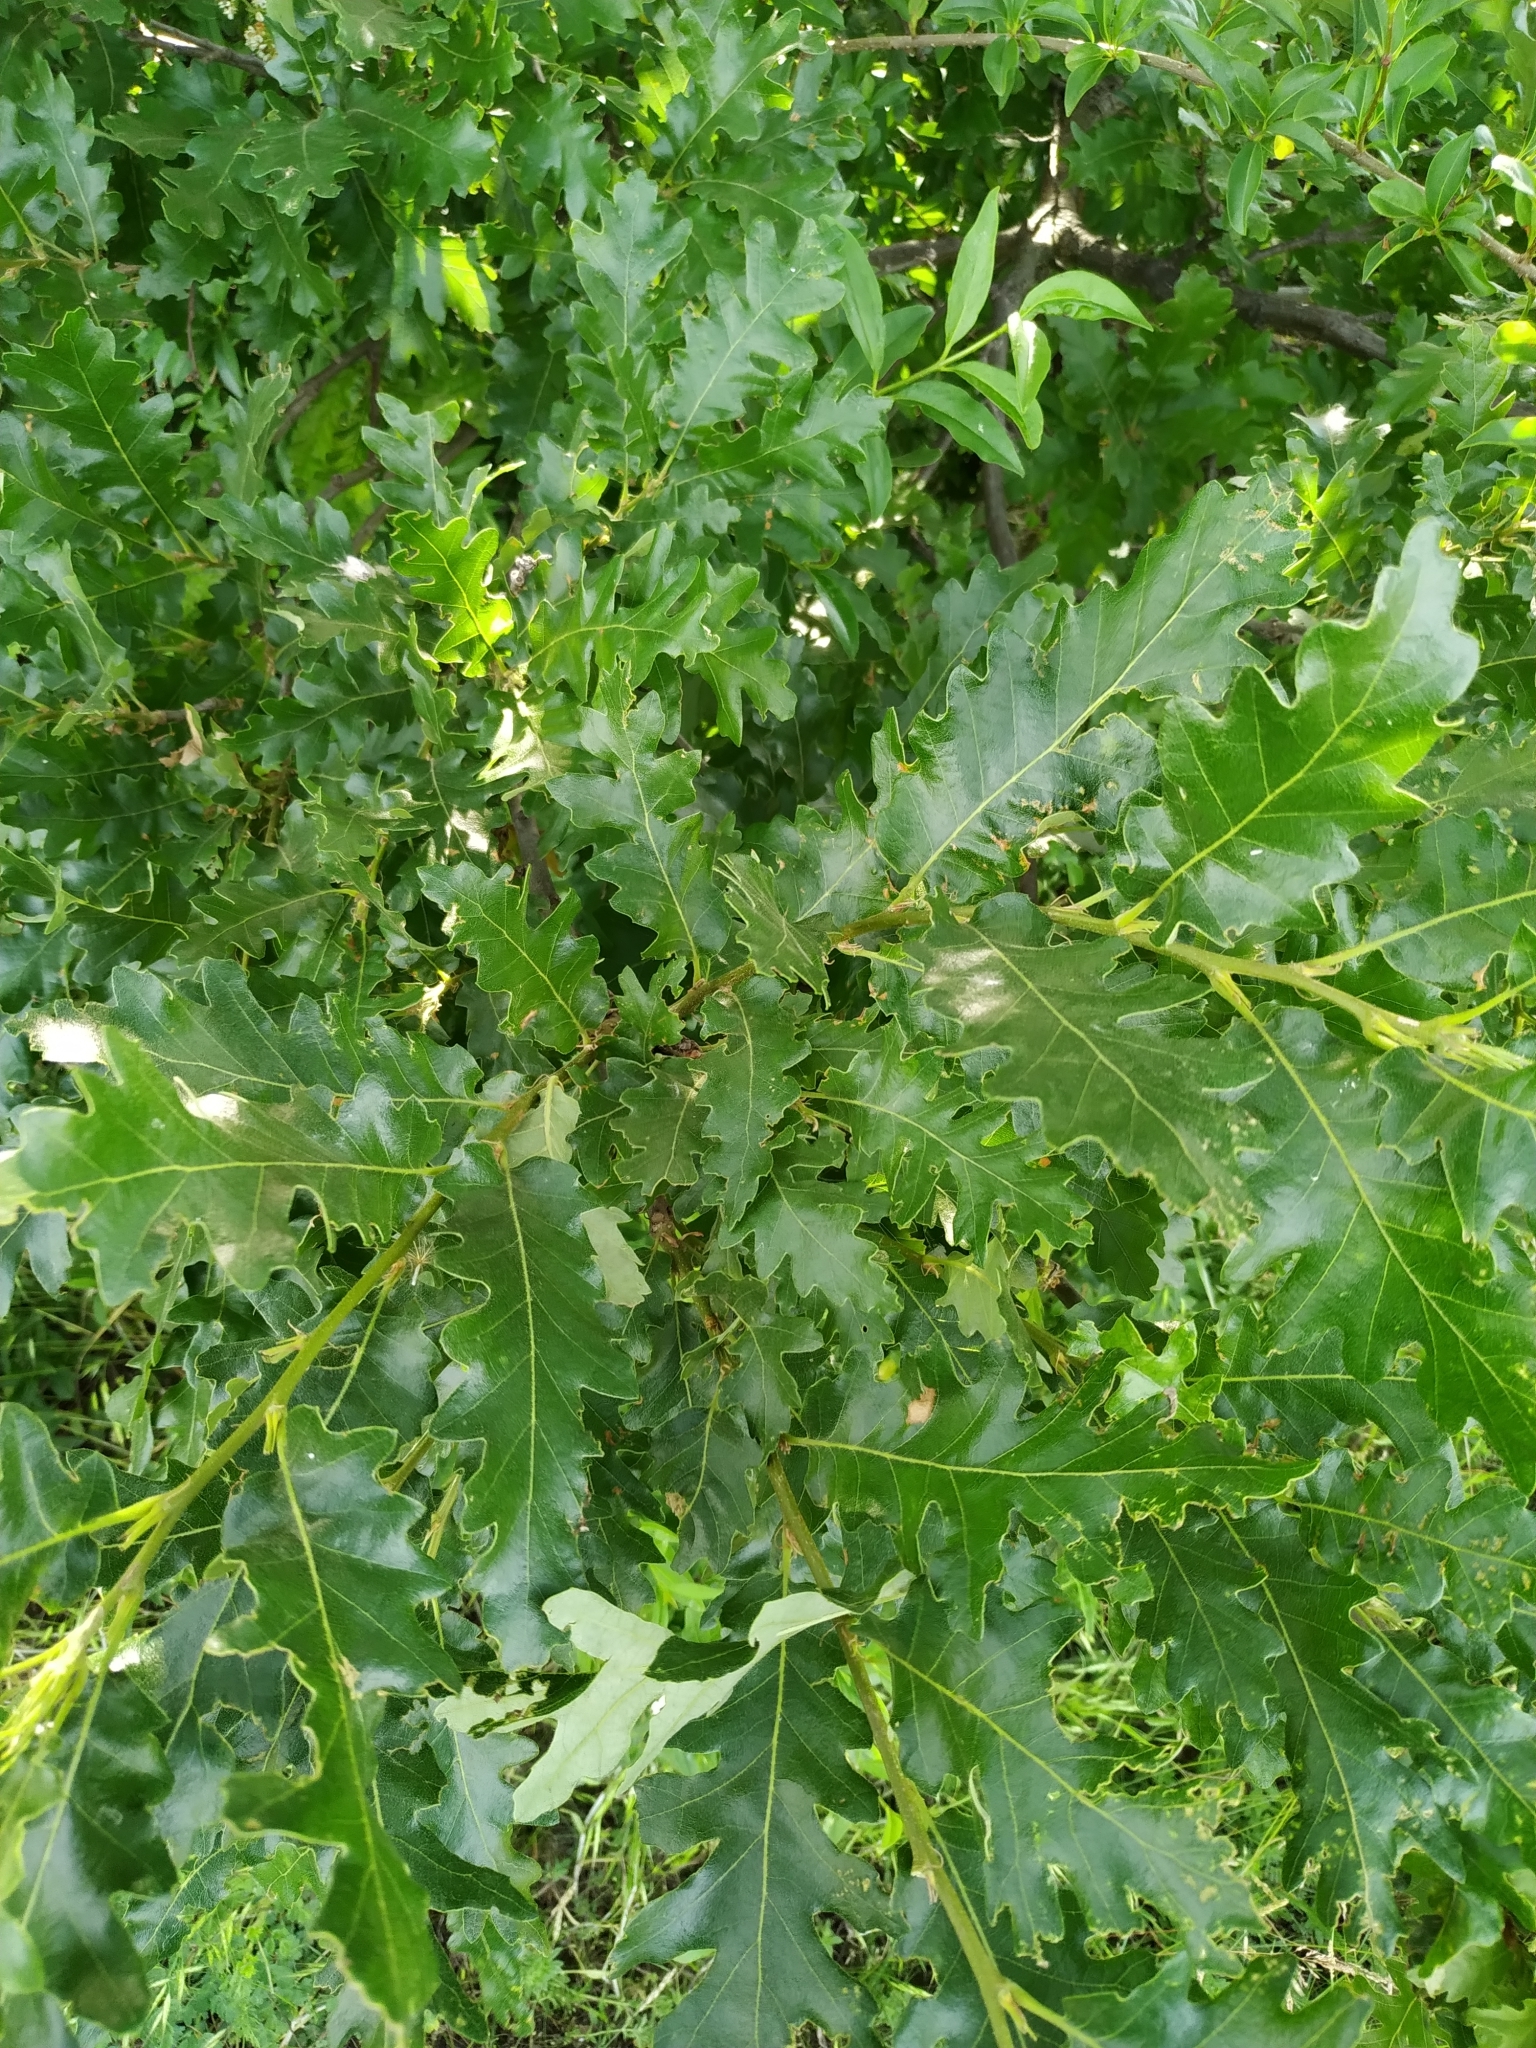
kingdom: Plantae
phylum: Tracheophyta
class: Magnoliopsida
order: Fagales
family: Fagaceae
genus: Quercus
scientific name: Quercus cerris
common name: Turkey oak
